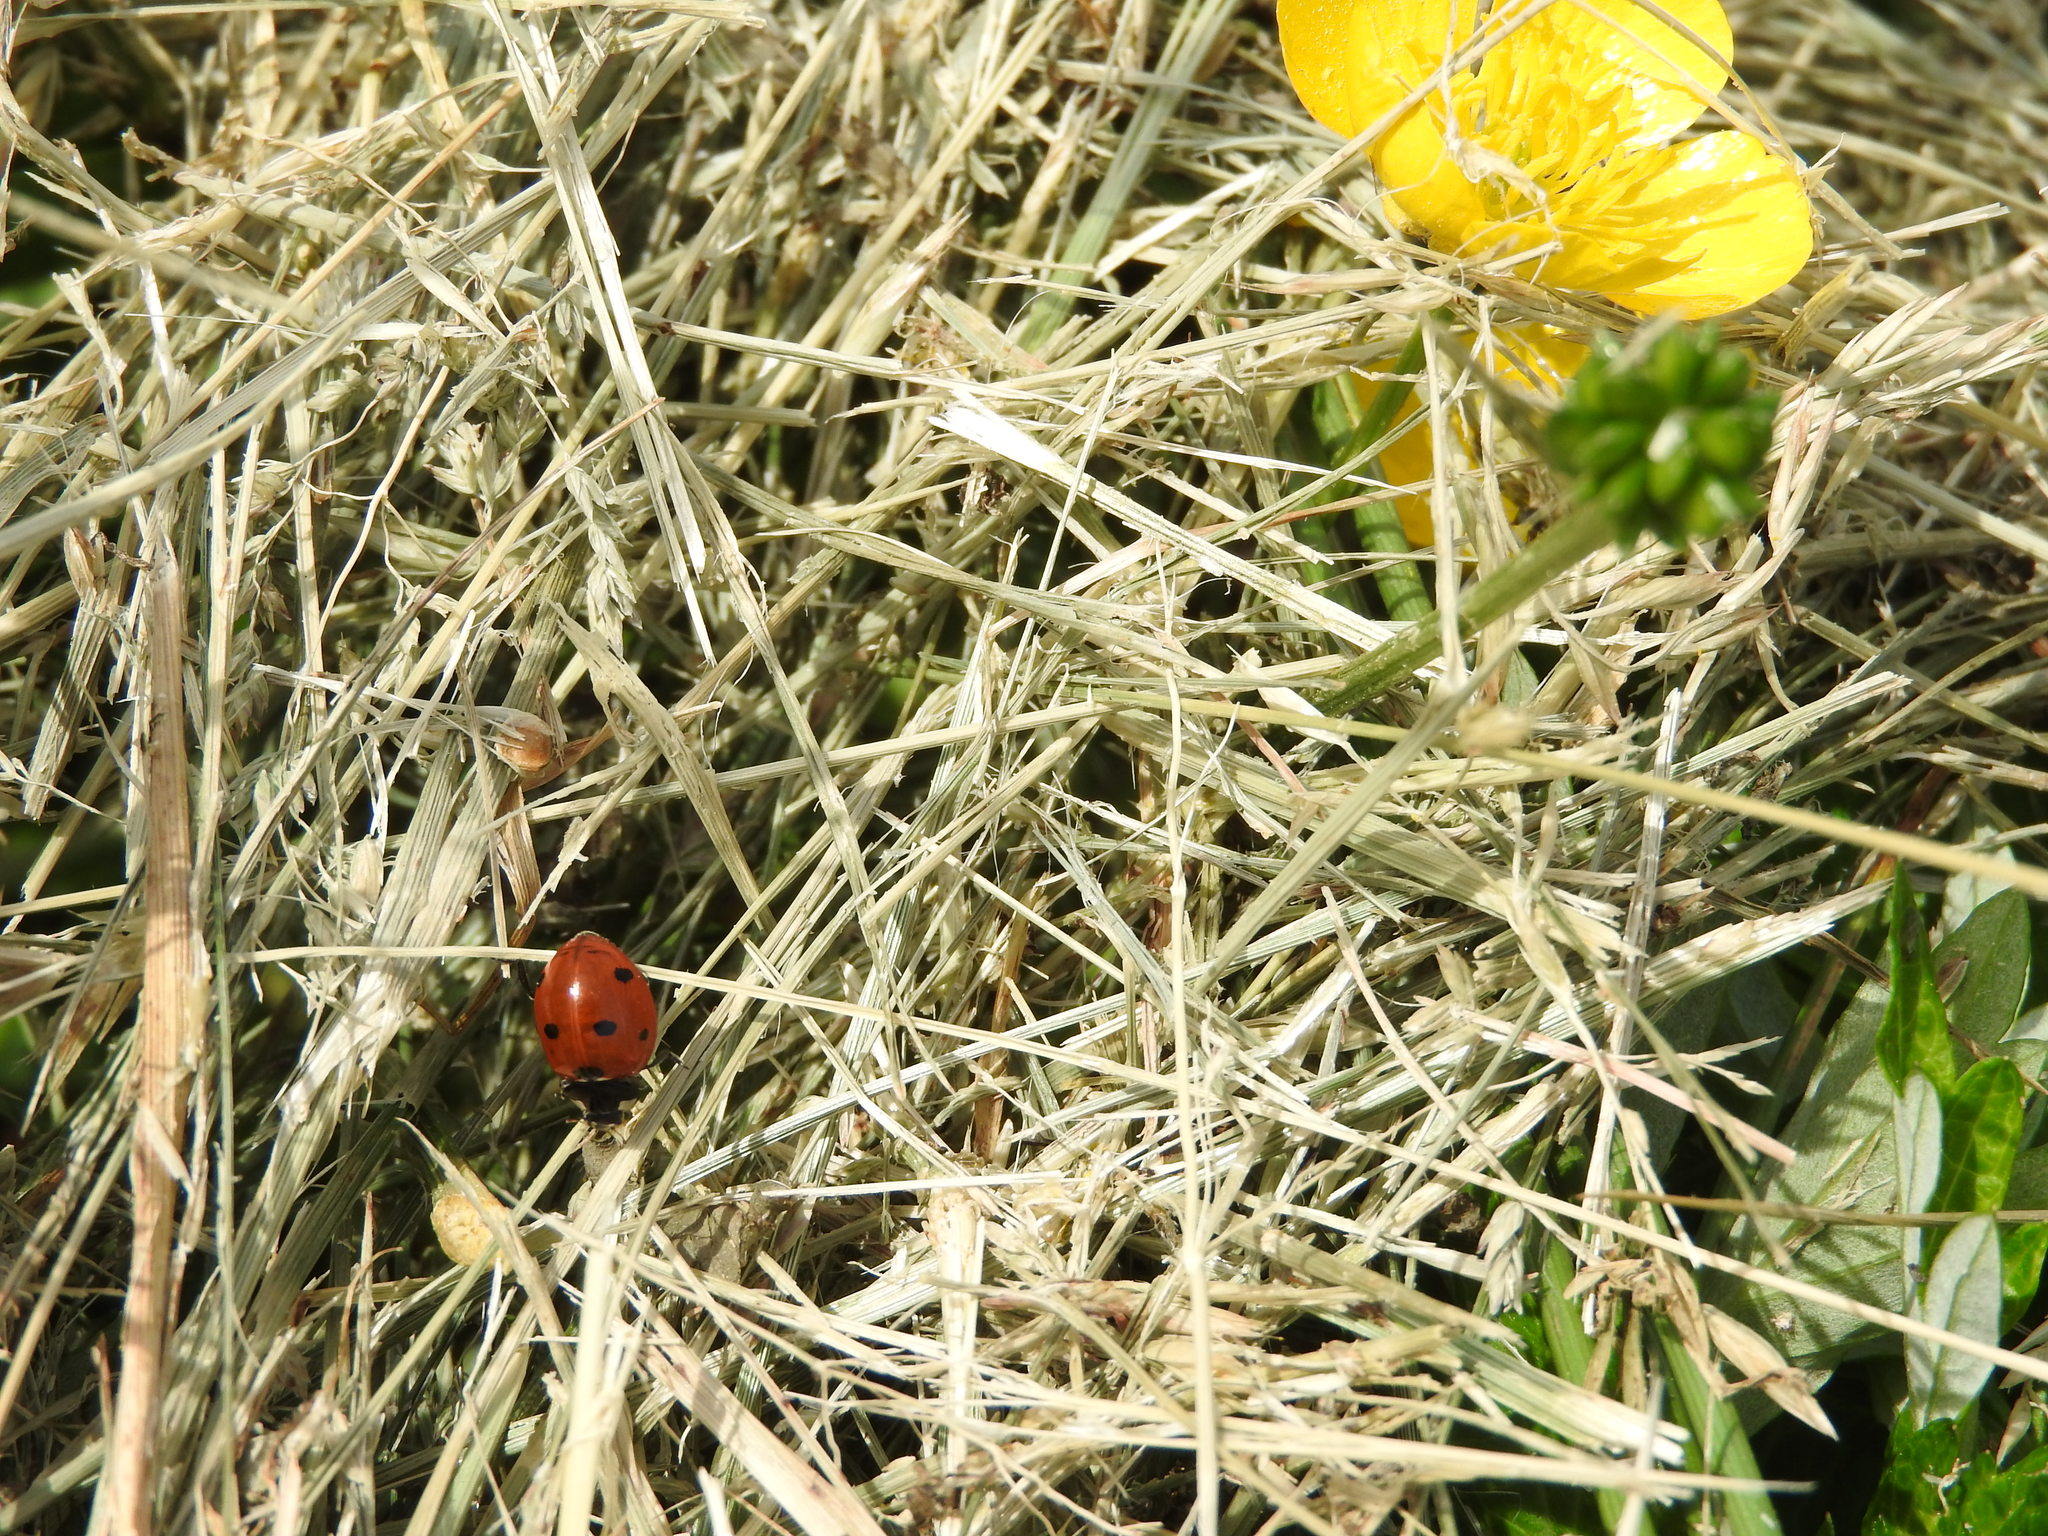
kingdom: Animalia
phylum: Arthropoda
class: Insecta
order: Coleoptera
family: Coccinellidae
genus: Coccinella
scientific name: Coccinella septempunctata
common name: Sevenspotted lady beetle
